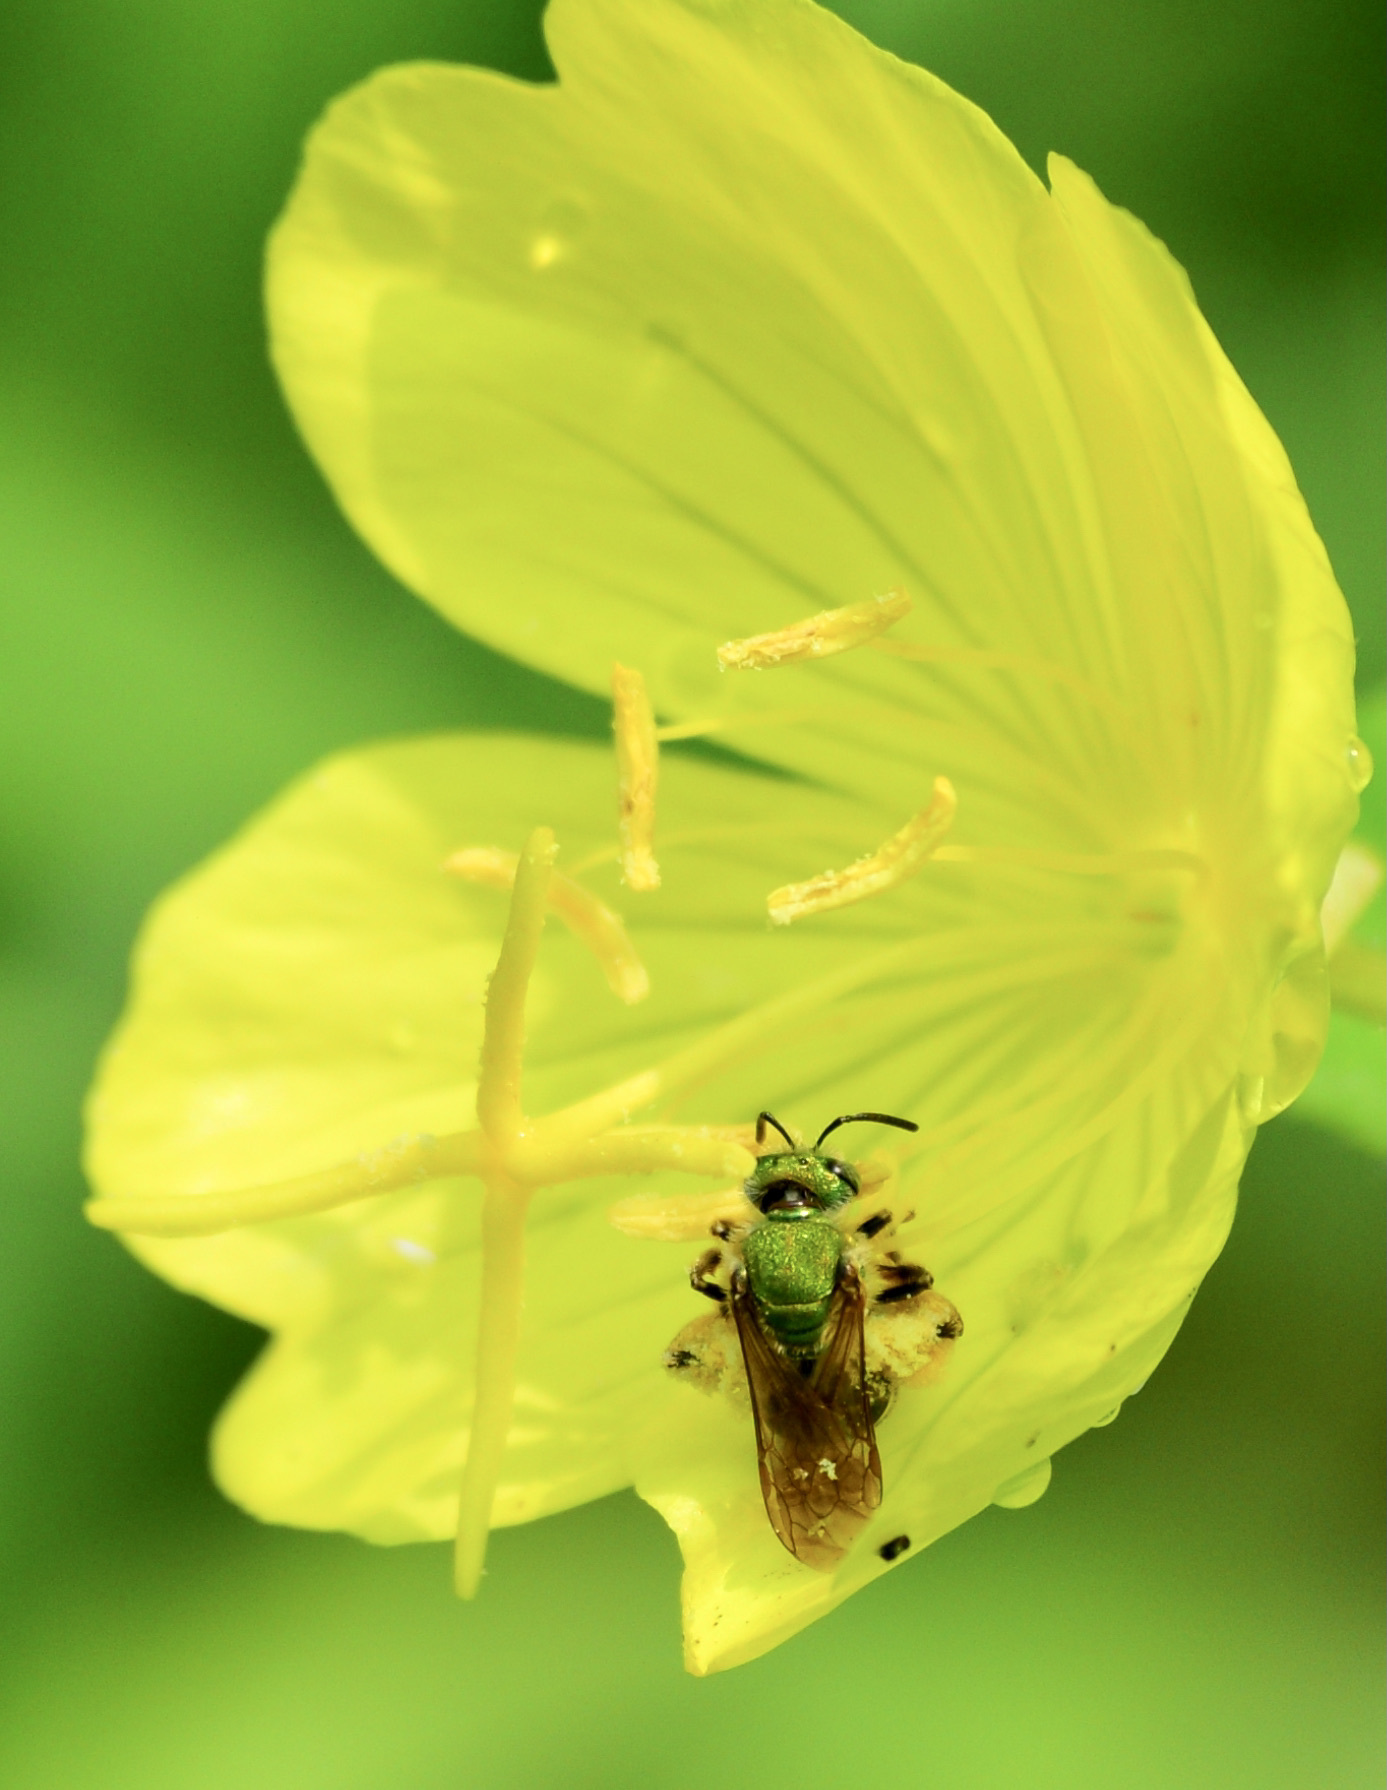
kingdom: Animalia
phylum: Arthropoda
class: Insecta
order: Hymenoptera
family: Halictidae
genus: Agapostemon
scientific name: Agapostemon virescens
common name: Bicolored striped sweat bee
